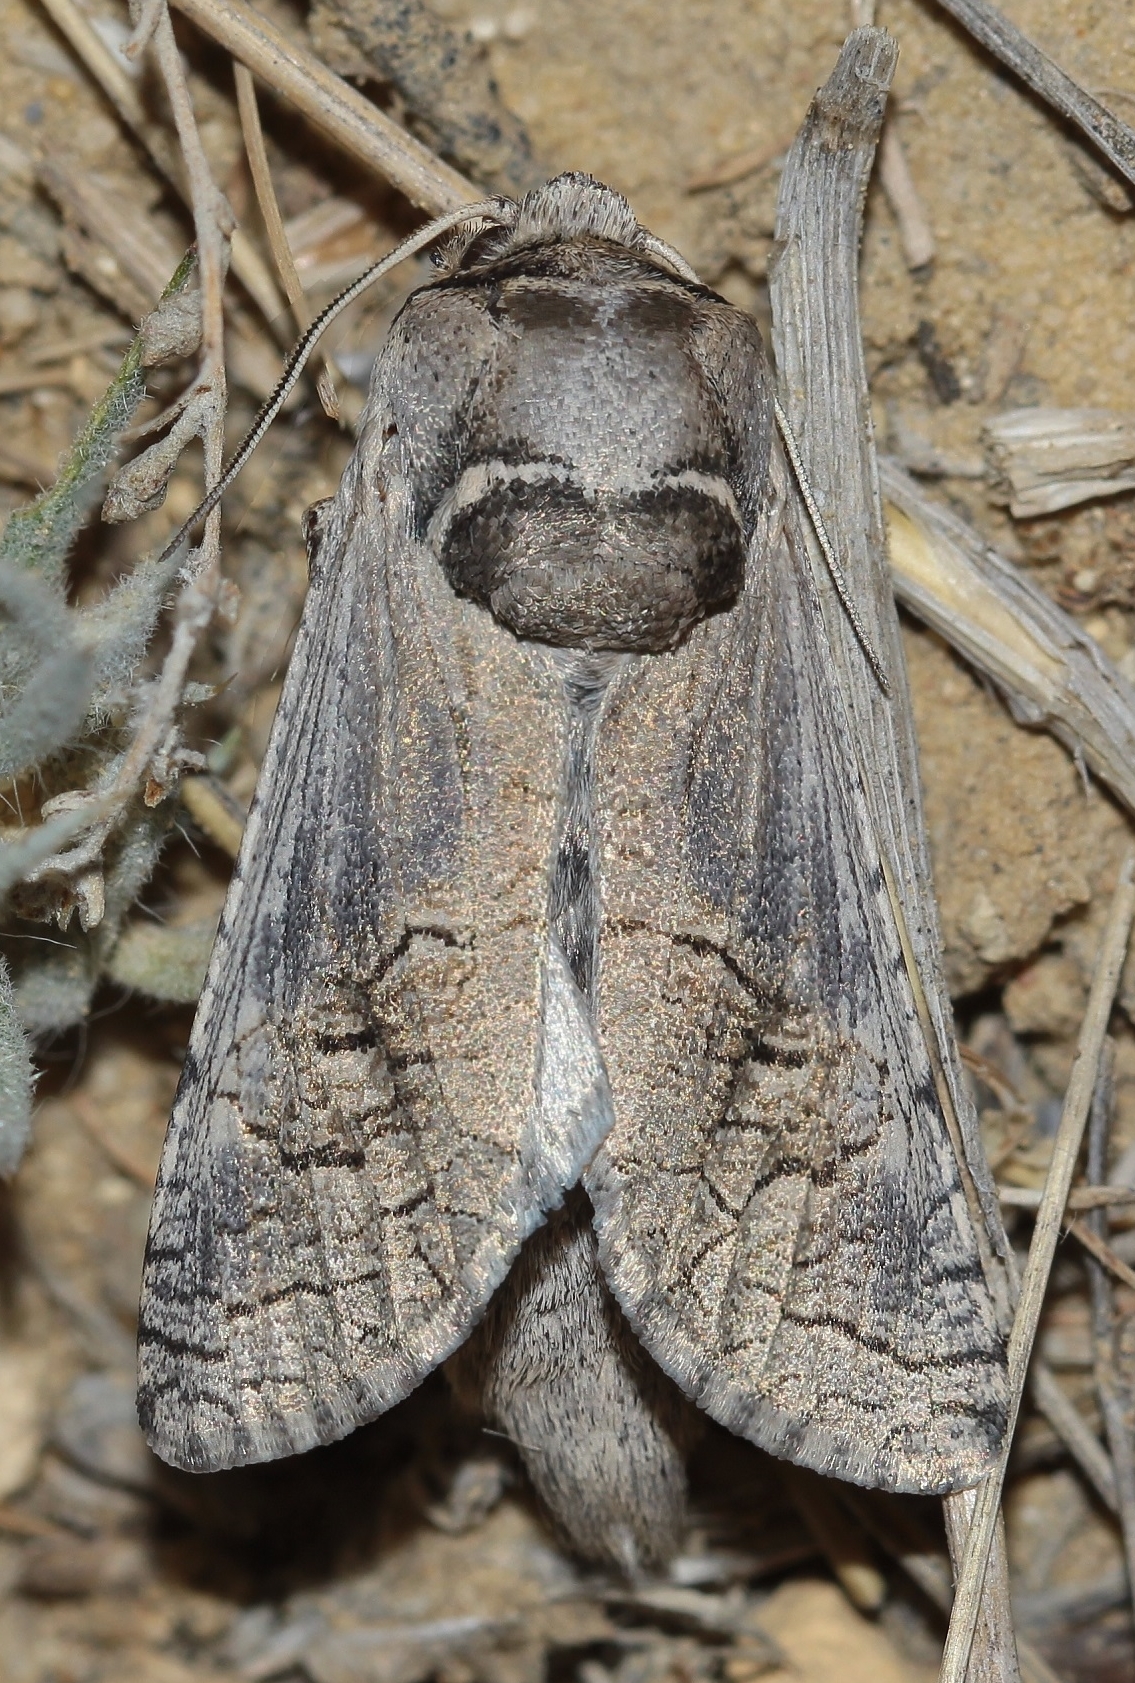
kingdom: Animalia
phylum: Arthropoda
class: Insecta
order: Lepidoptera
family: Cossidae
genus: Cossus
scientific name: Cossus cossus
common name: Goat moth
